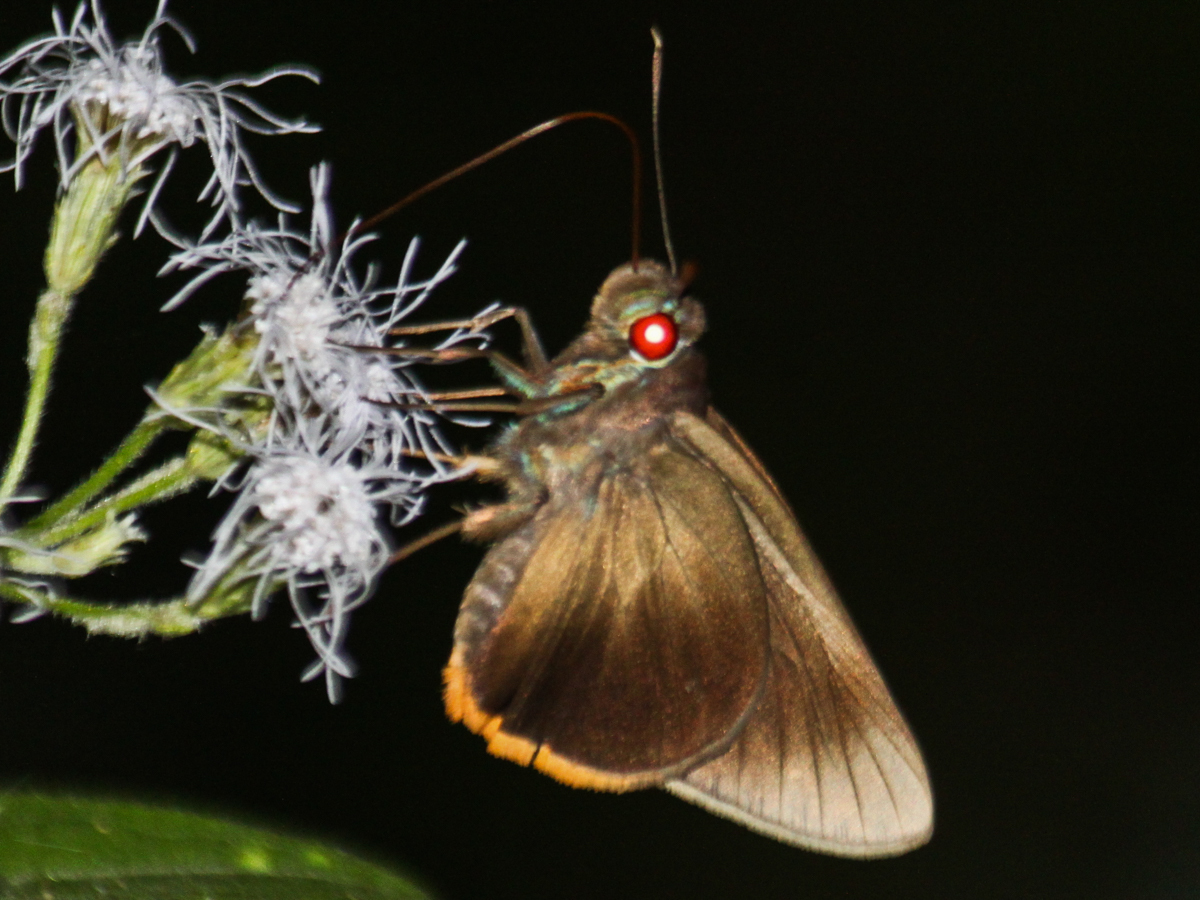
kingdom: Animalia
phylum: Arthropoda
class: Insecta
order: Lepidoptera
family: Hesperiidae
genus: Matapa
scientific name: Matapa cresta
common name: Fringed redeye
